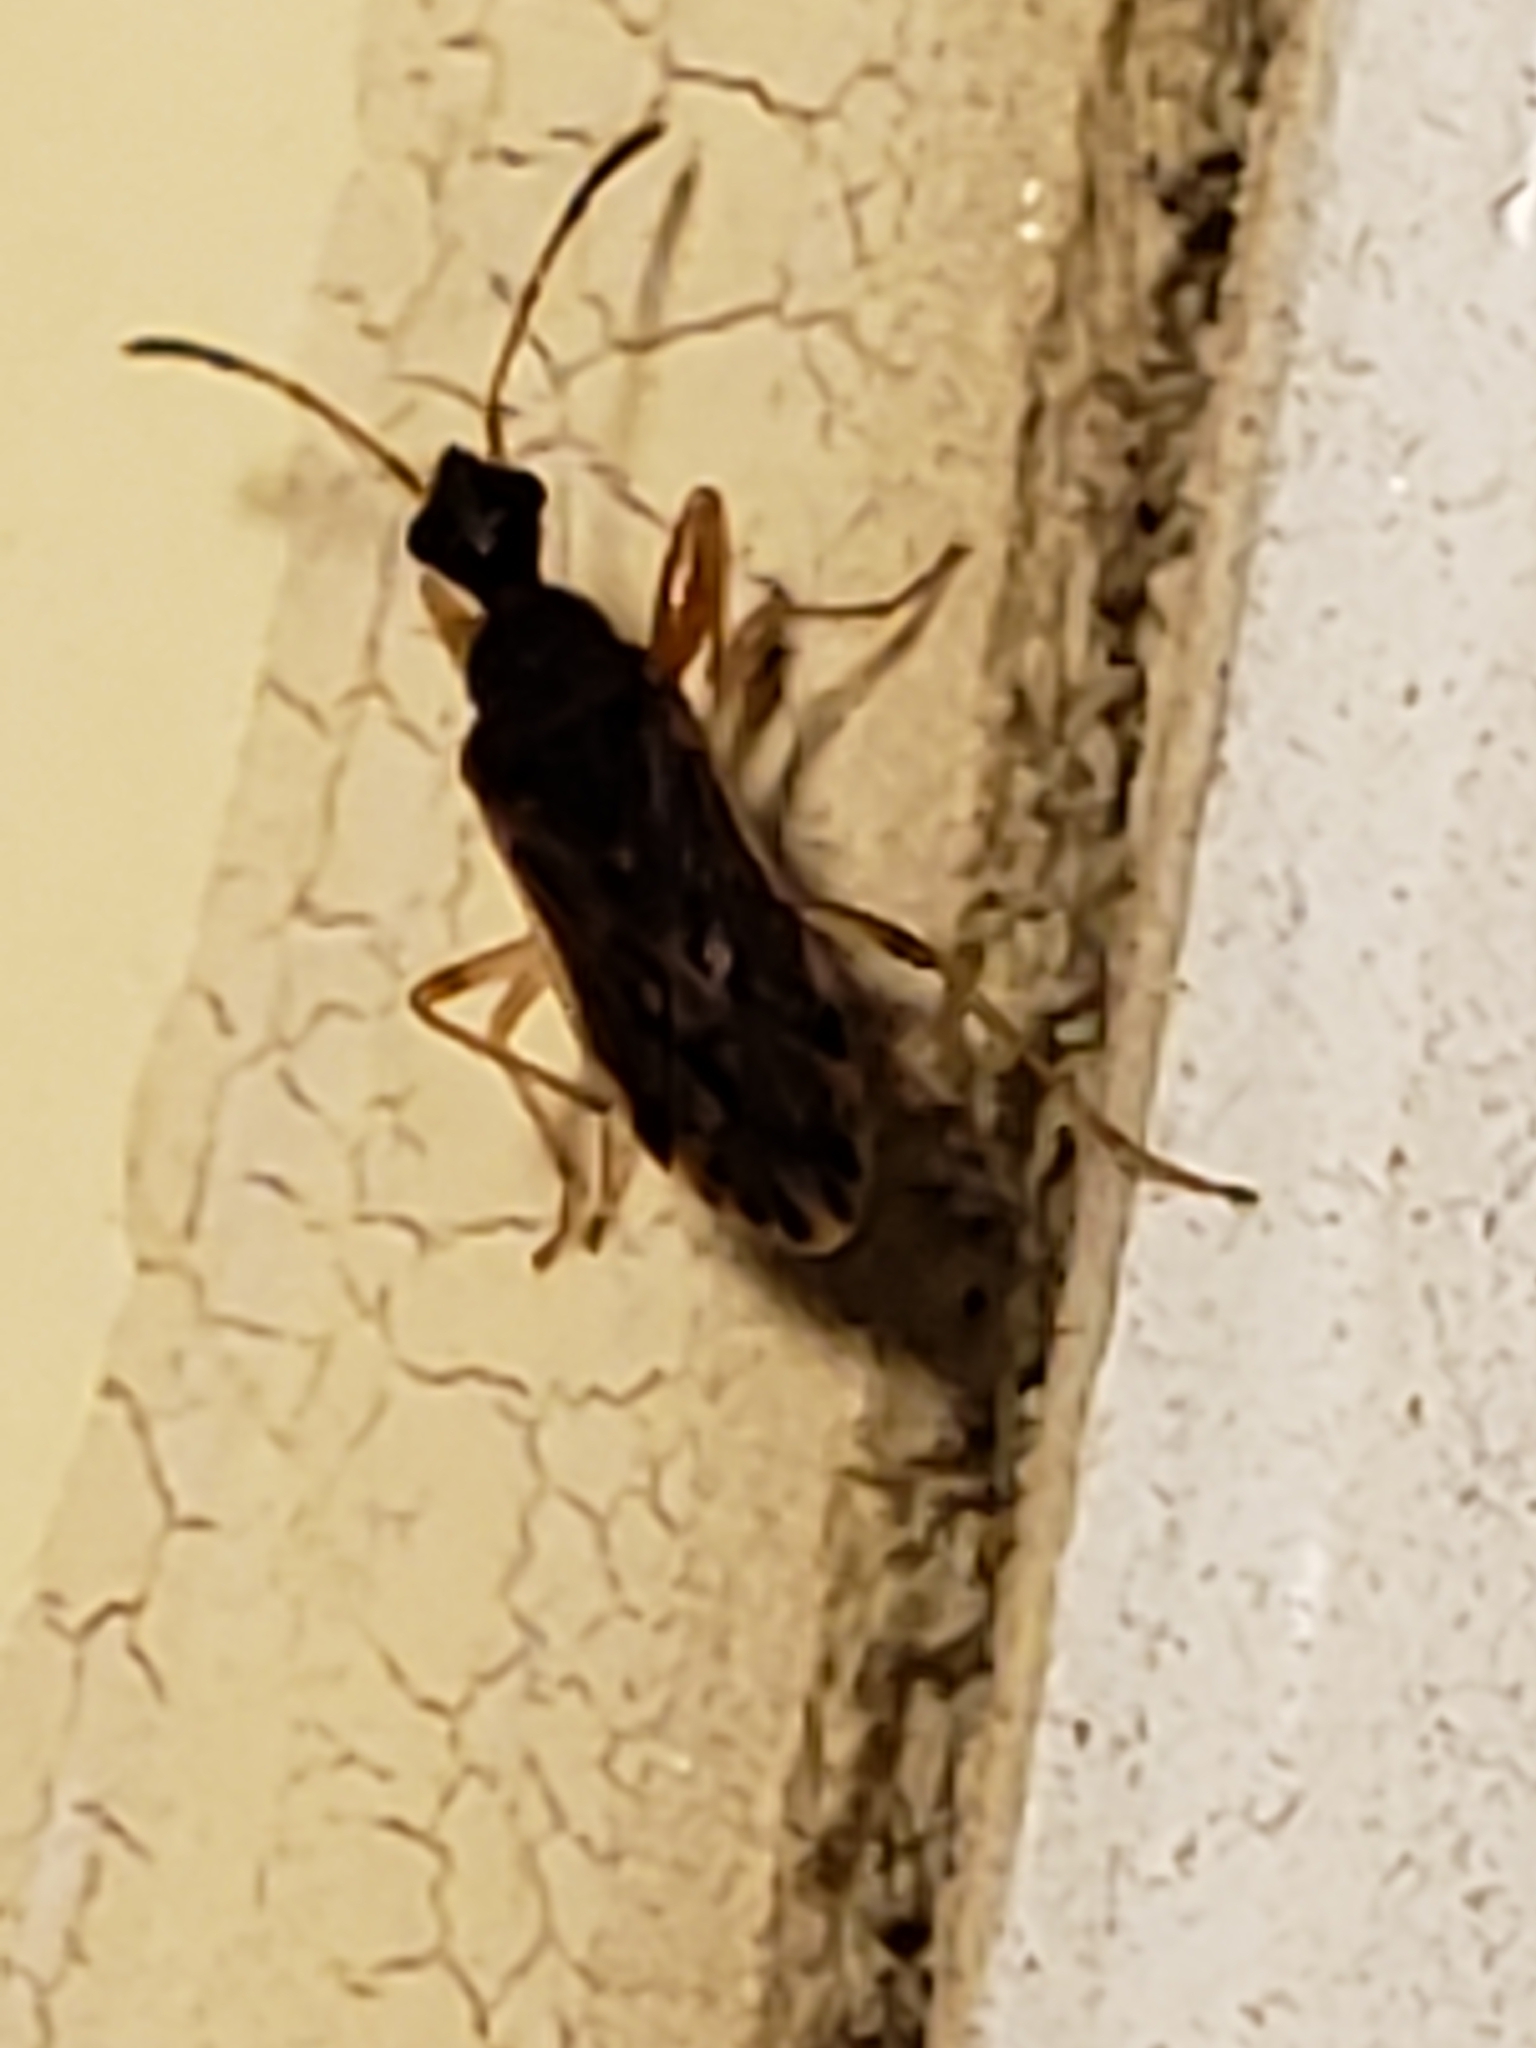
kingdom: Animalia
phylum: Arthropoda
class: Insecta
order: Hemiptera
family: Rhyparochromidae
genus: Heraeus
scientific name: Heraeus plebejus
